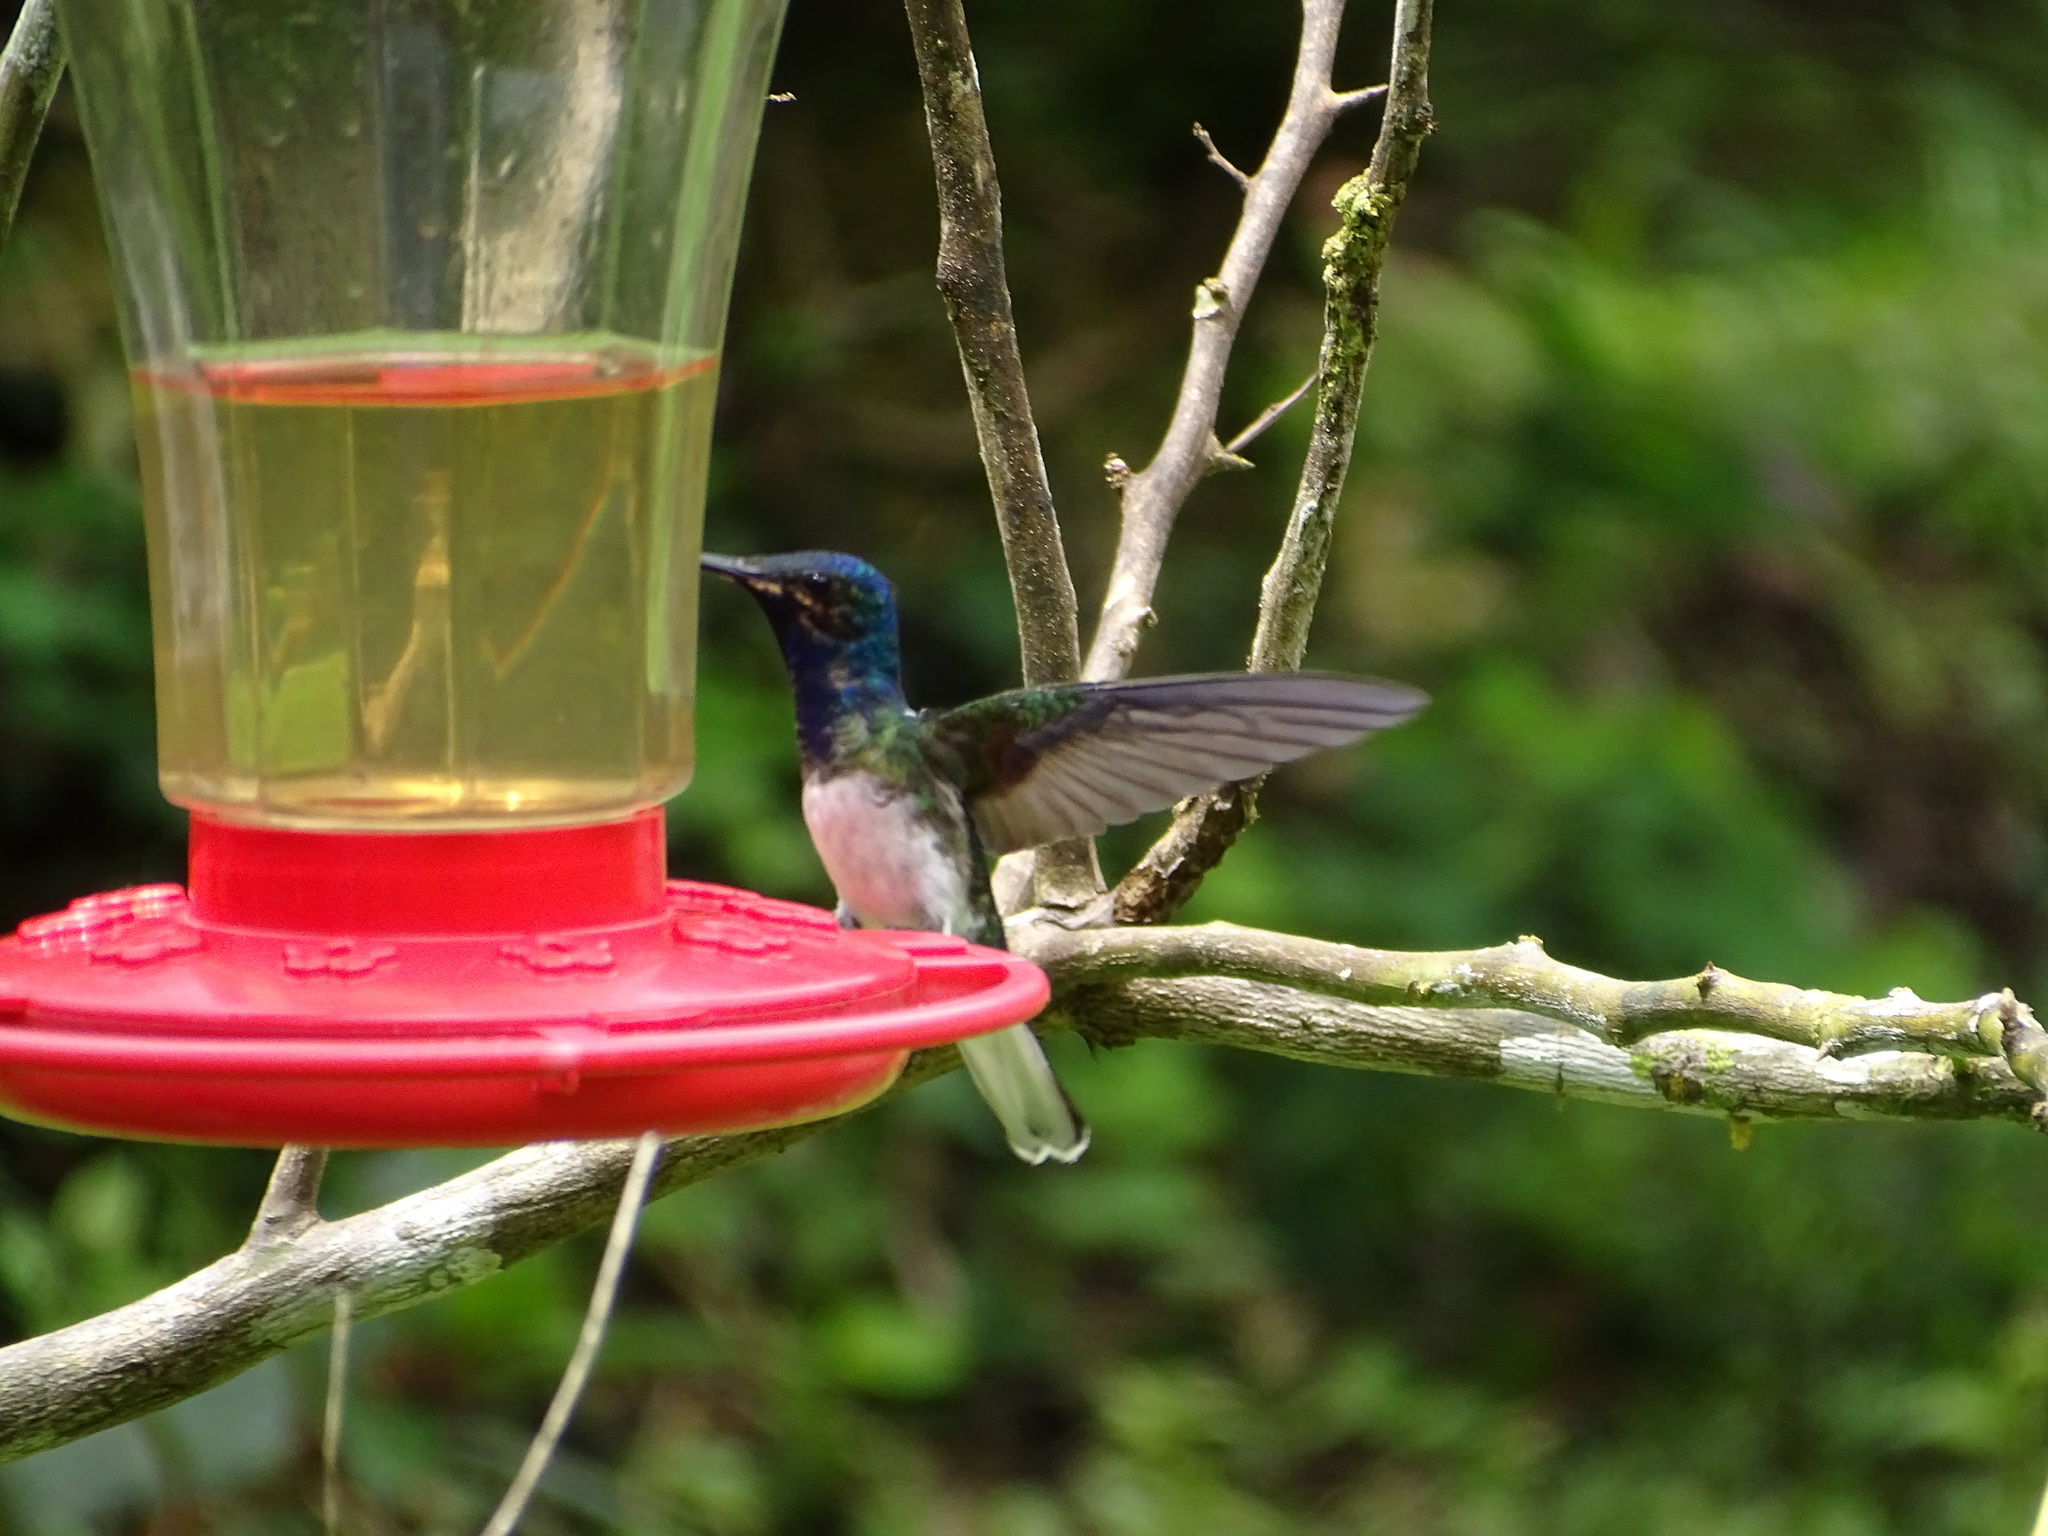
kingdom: Animalia
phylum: Chordata
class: Aves
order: Apodiformes
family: Trochilidae
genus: Florisuga
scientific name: Florisuga mellivora
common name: White-necked jacobin
